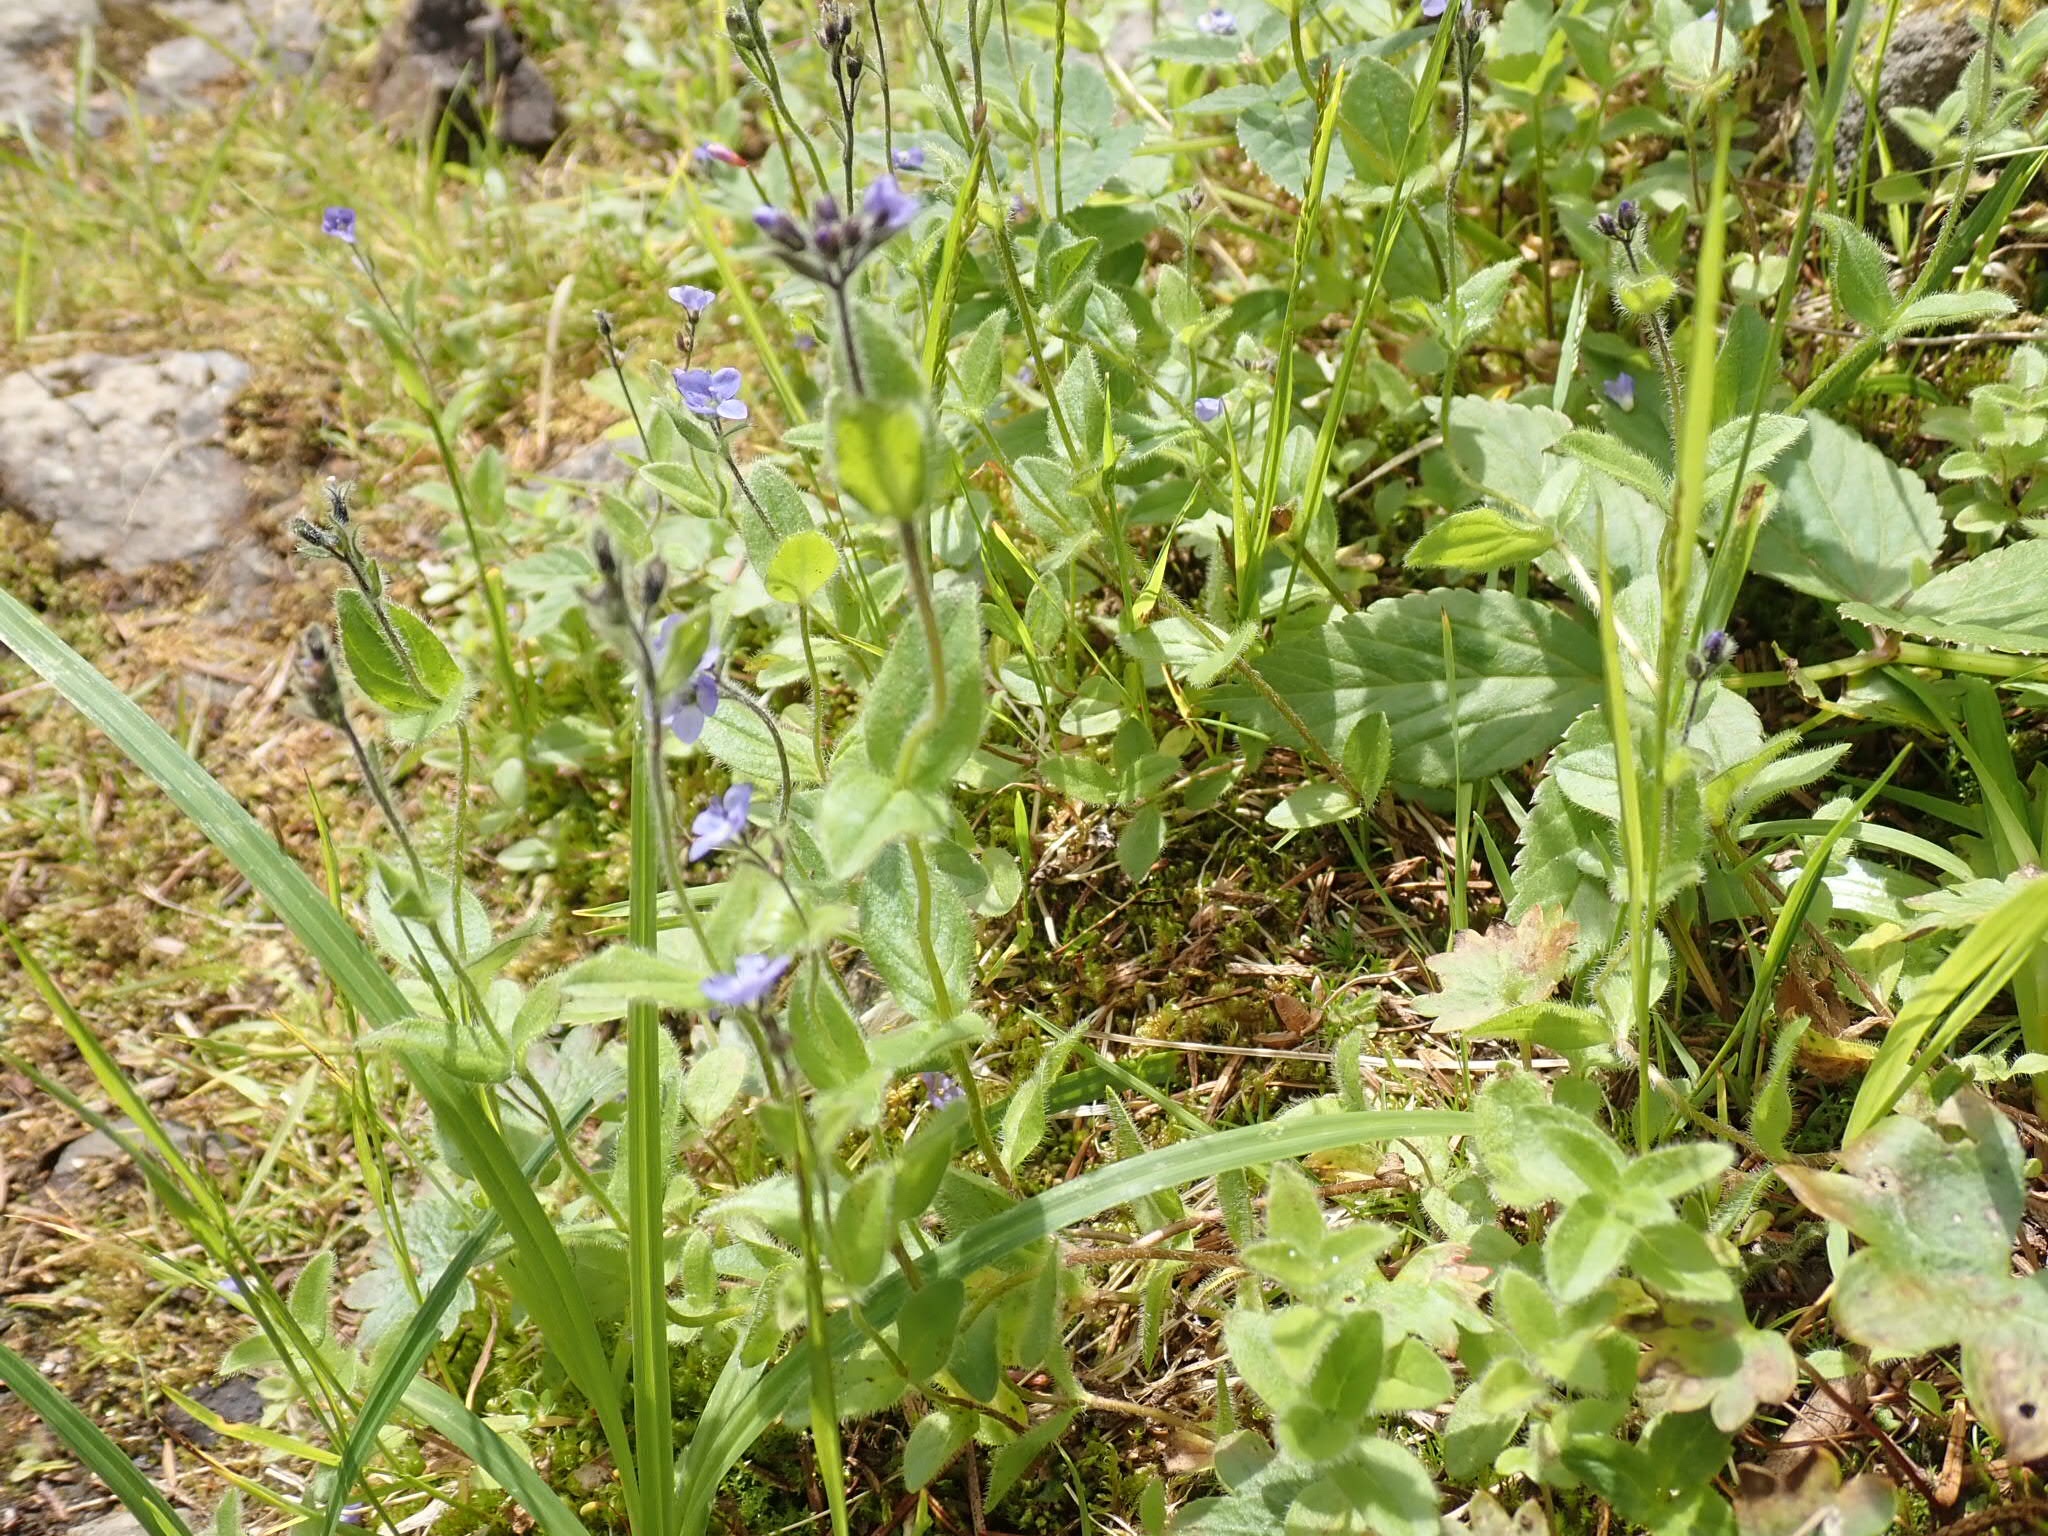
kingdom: Plantae
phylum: Tracheophyta
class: Magnoliopsida
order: Lamiales
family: Plantaginaceae
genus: Veronica
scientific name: Veronica wormskjoldii
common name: American alpine speedwell
